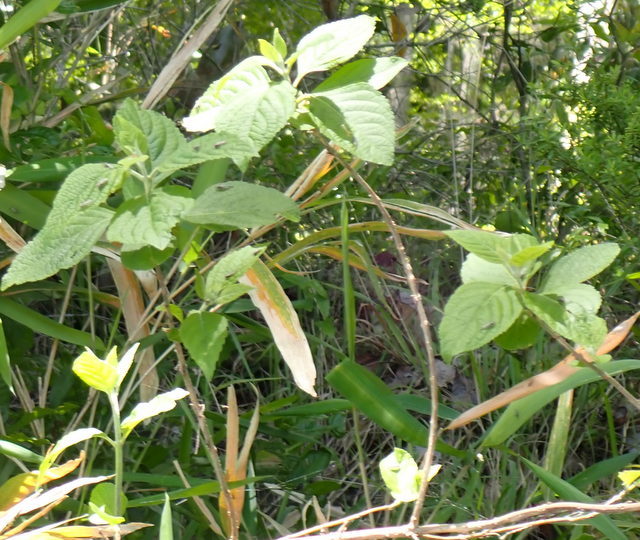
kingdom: Plantae
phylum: Tracheophyta
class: Magnoliopsida
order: Lamiales
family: Lamiaceae
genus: Callicarpa
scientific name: Callicarpa americana
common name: American beautyberry
